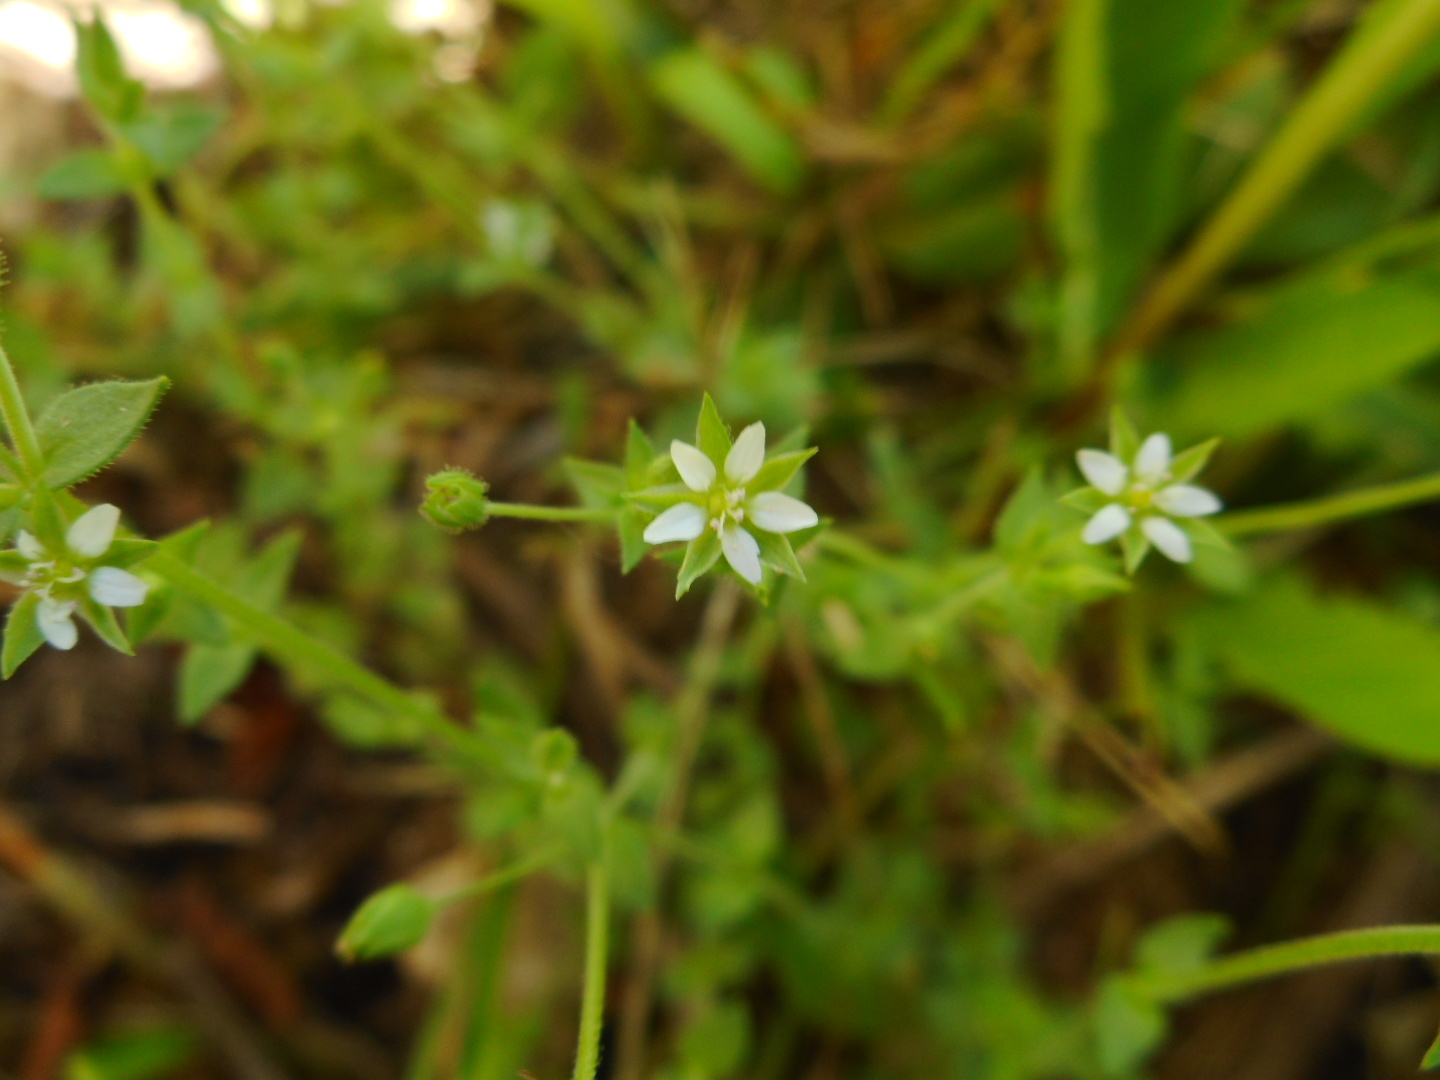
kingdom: Plantae
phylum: Tracheophyta
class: Magnoliopsida
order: Caryophyllales
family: Caryophyllaceae
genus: Arenaria
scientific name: Arenaria serpyllifolia
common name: Thyme-leaved sandwort
